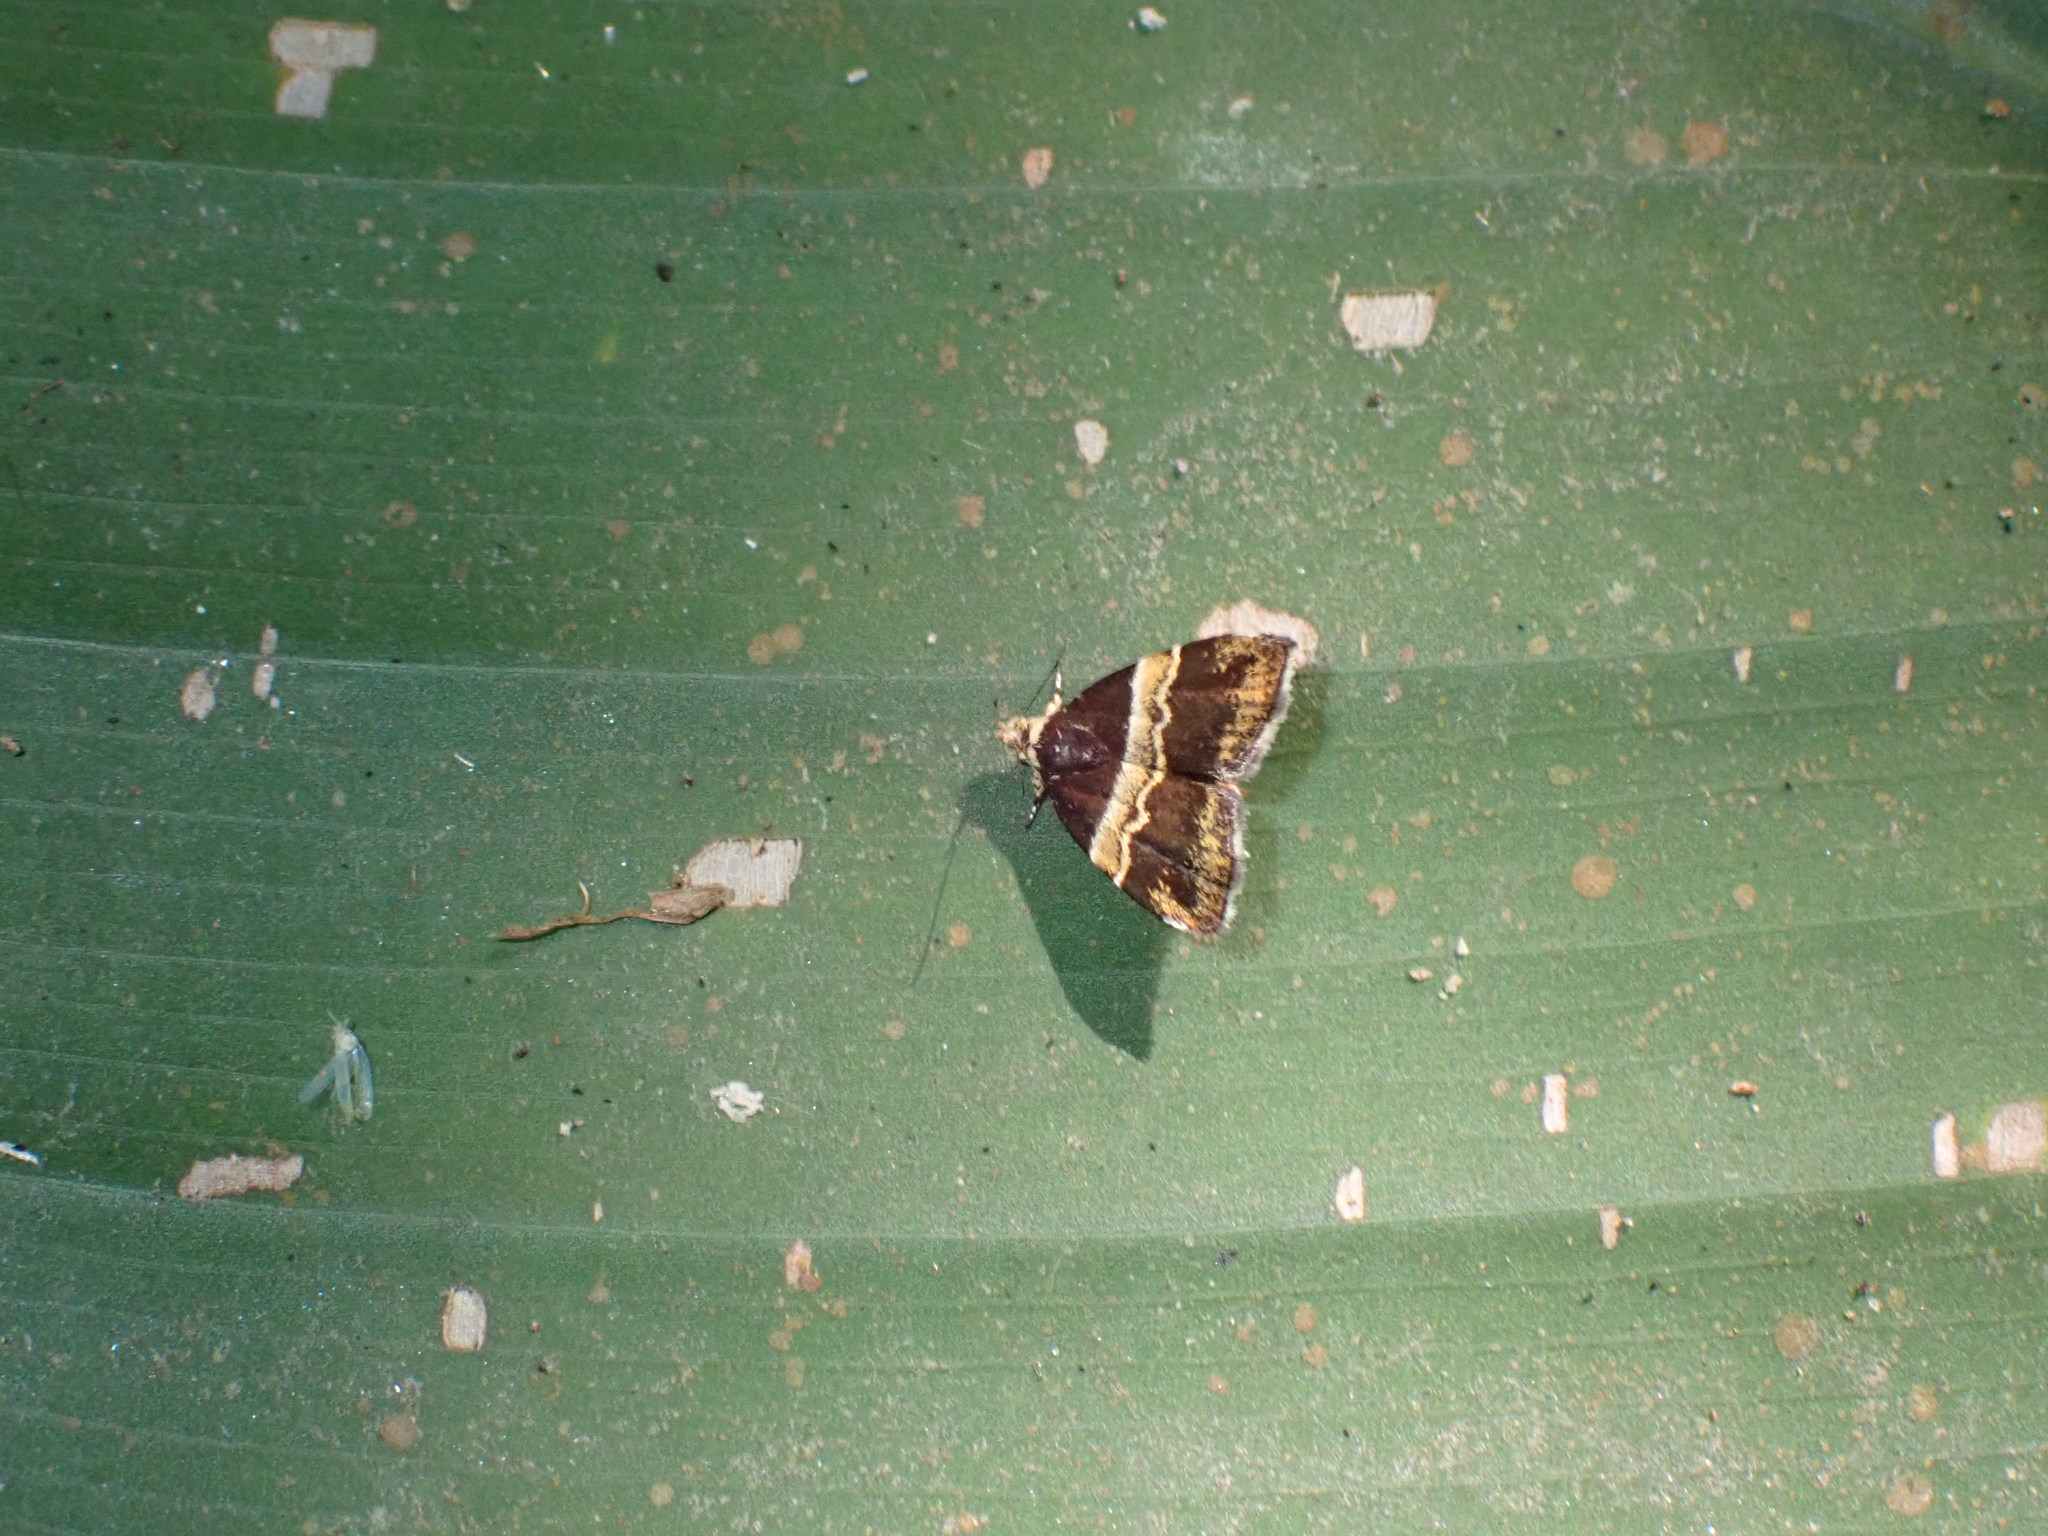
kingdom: Animalia
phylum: Arthropoda
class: Insecta
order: Lepidoptera
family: Choreutidae
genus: Choreutis
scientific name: Choreutis basalis
